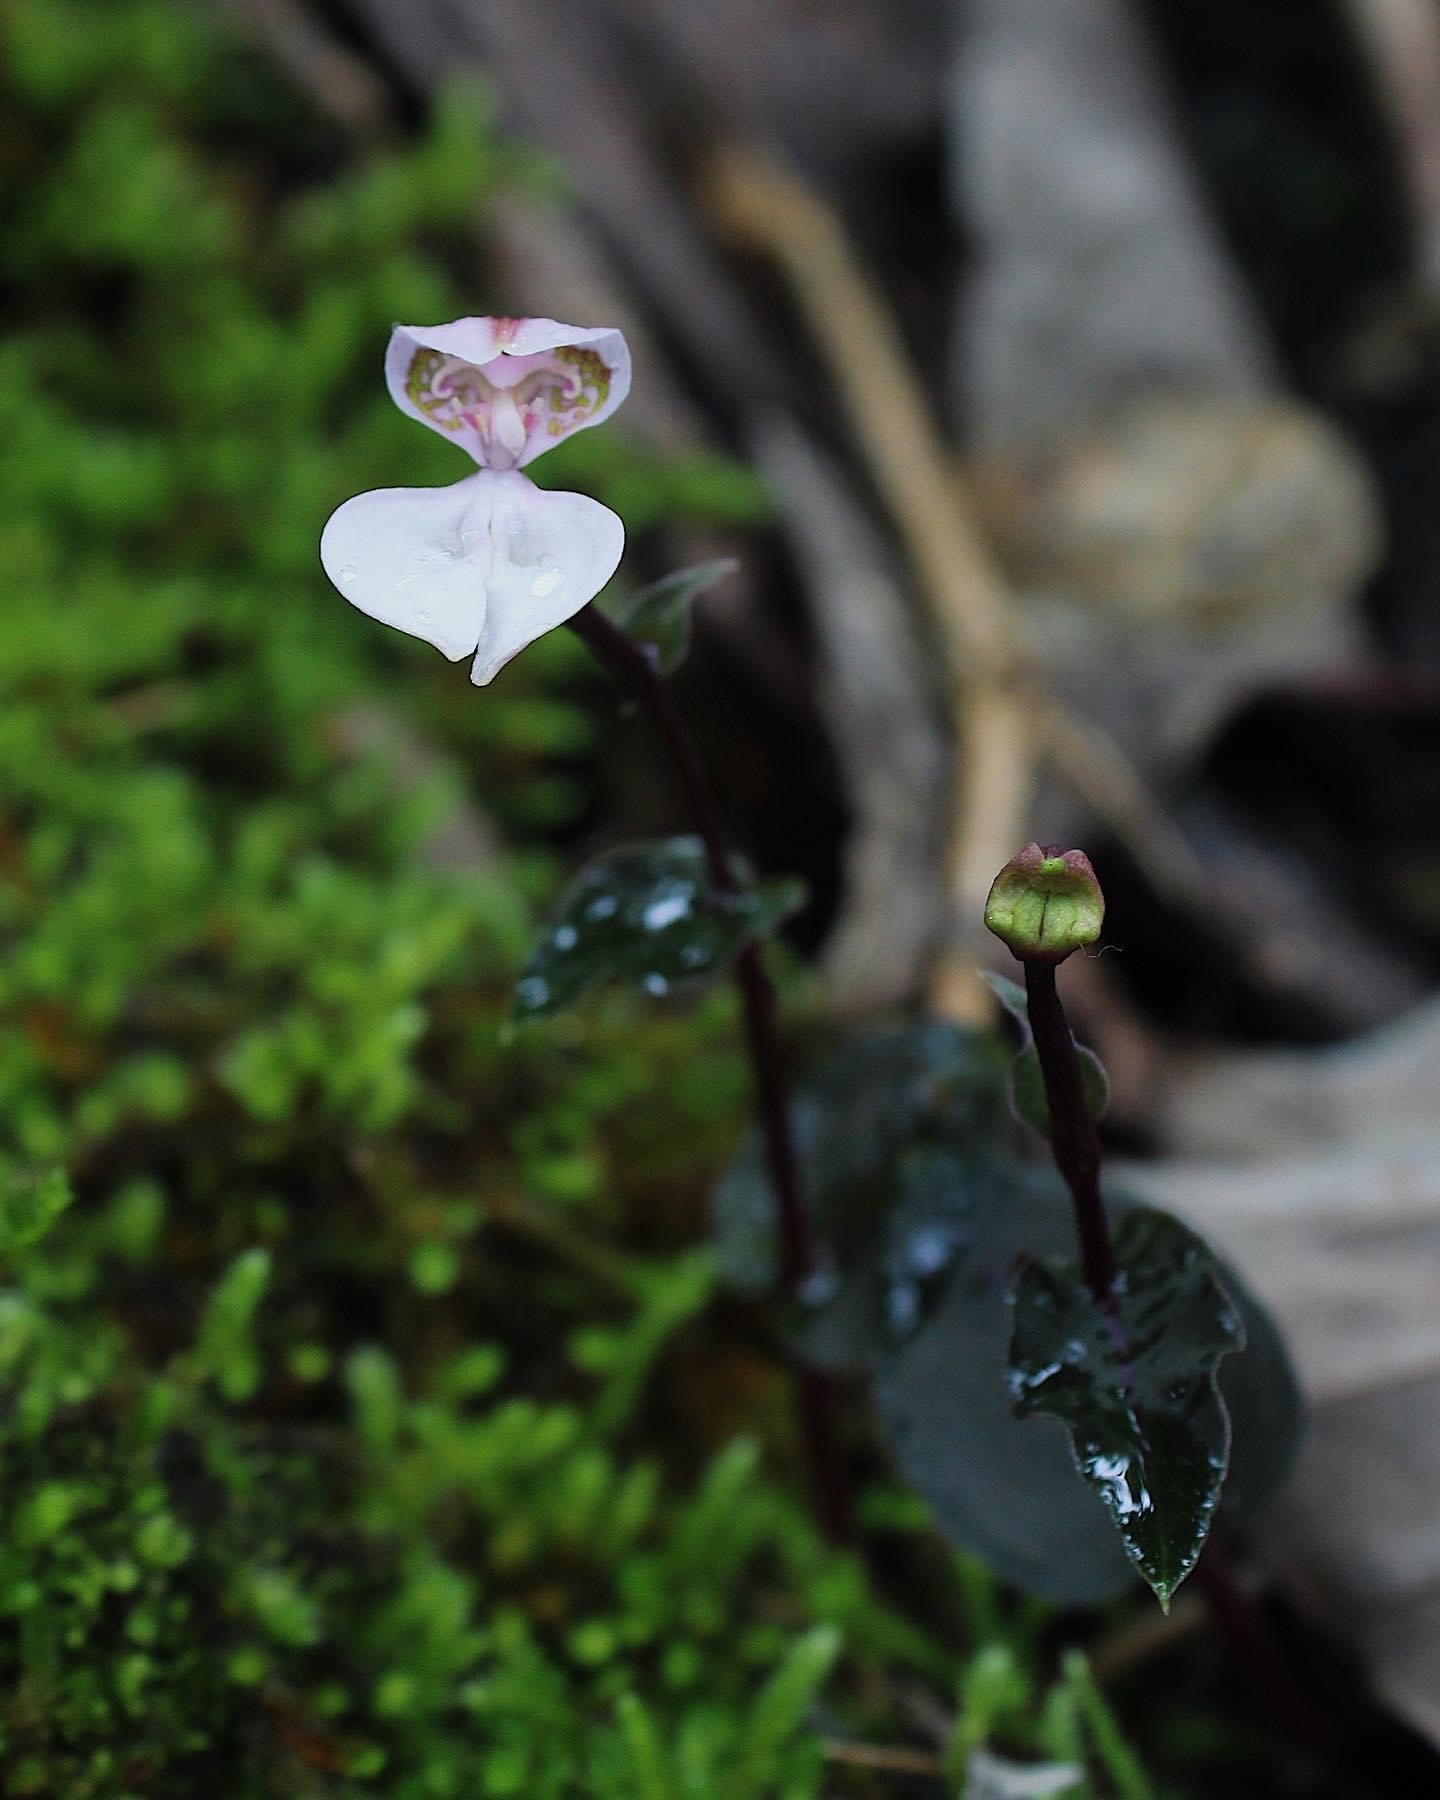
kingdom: Plantae
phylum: Tracheophyta
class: Liliopsida
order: Asparagales
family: Orchidaceae
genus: Disperis
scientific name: Disperis neilgherrensis
